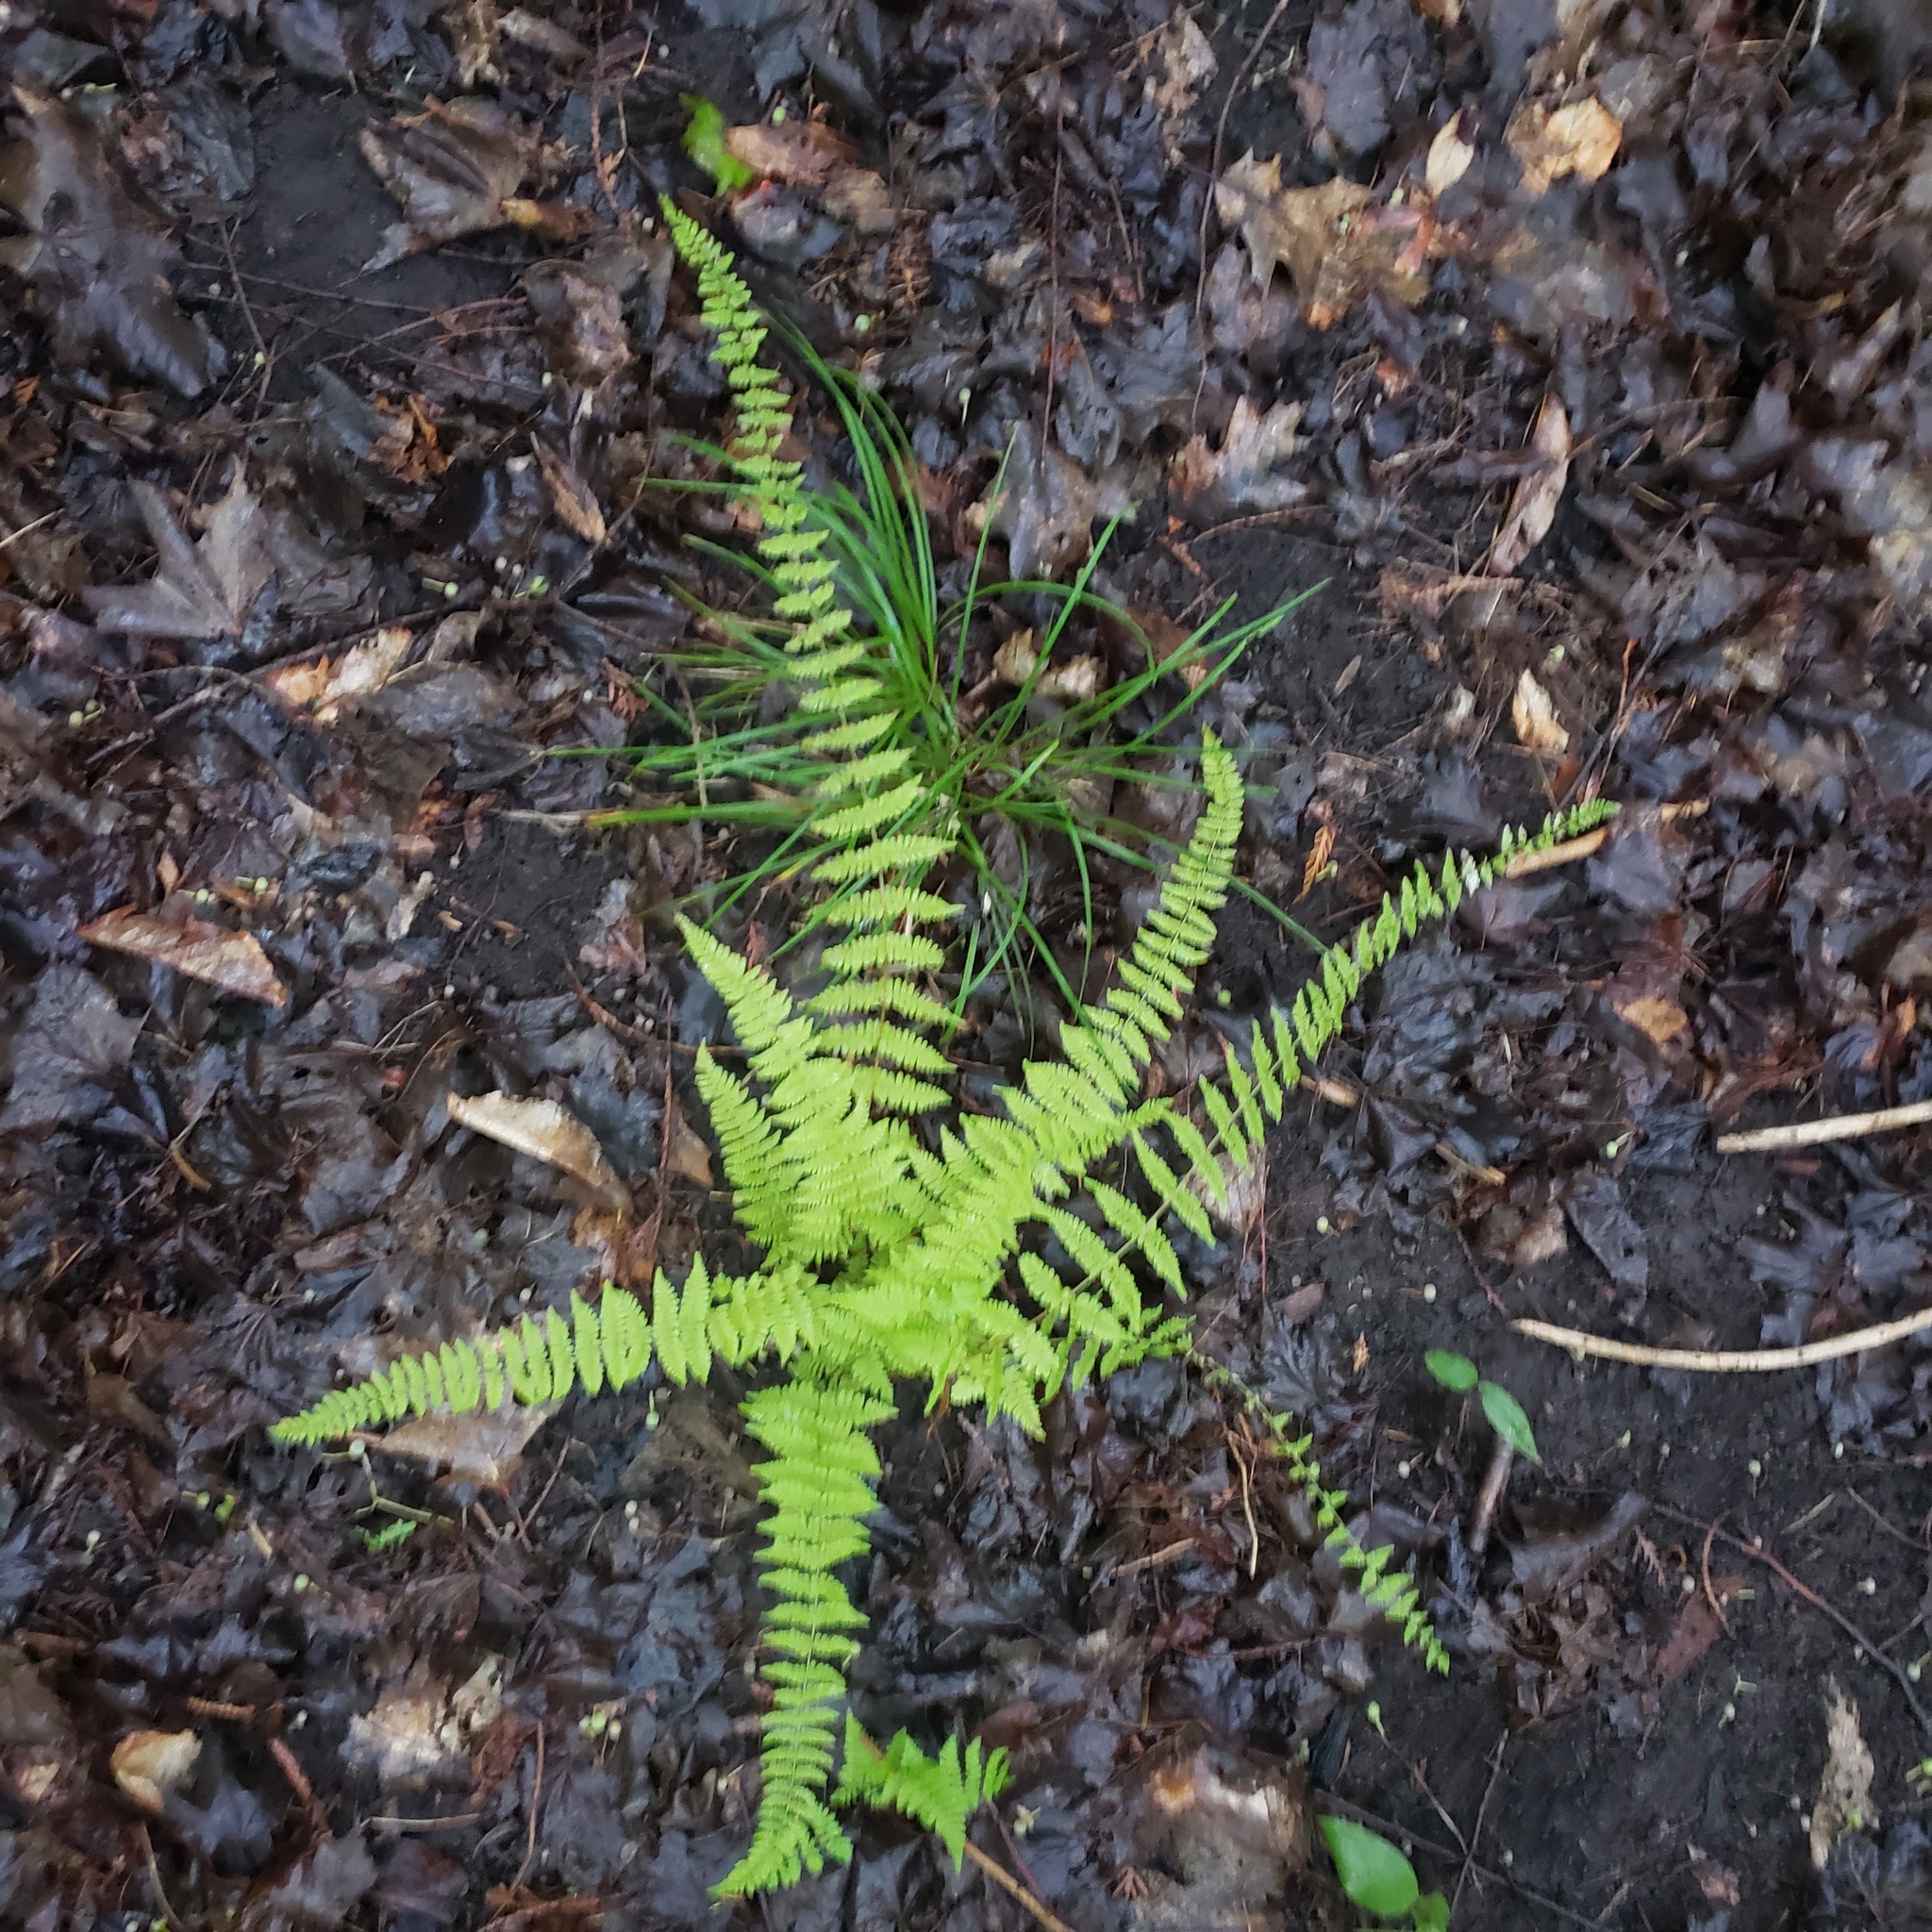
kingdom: Plantae
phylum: Tracheophyta
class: Polypodiopsida
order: Polypodiales
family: Cystopteridaceae
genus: Cystopteris
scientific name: Cystopteris bulbifera
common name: Bulblet bladder fern
